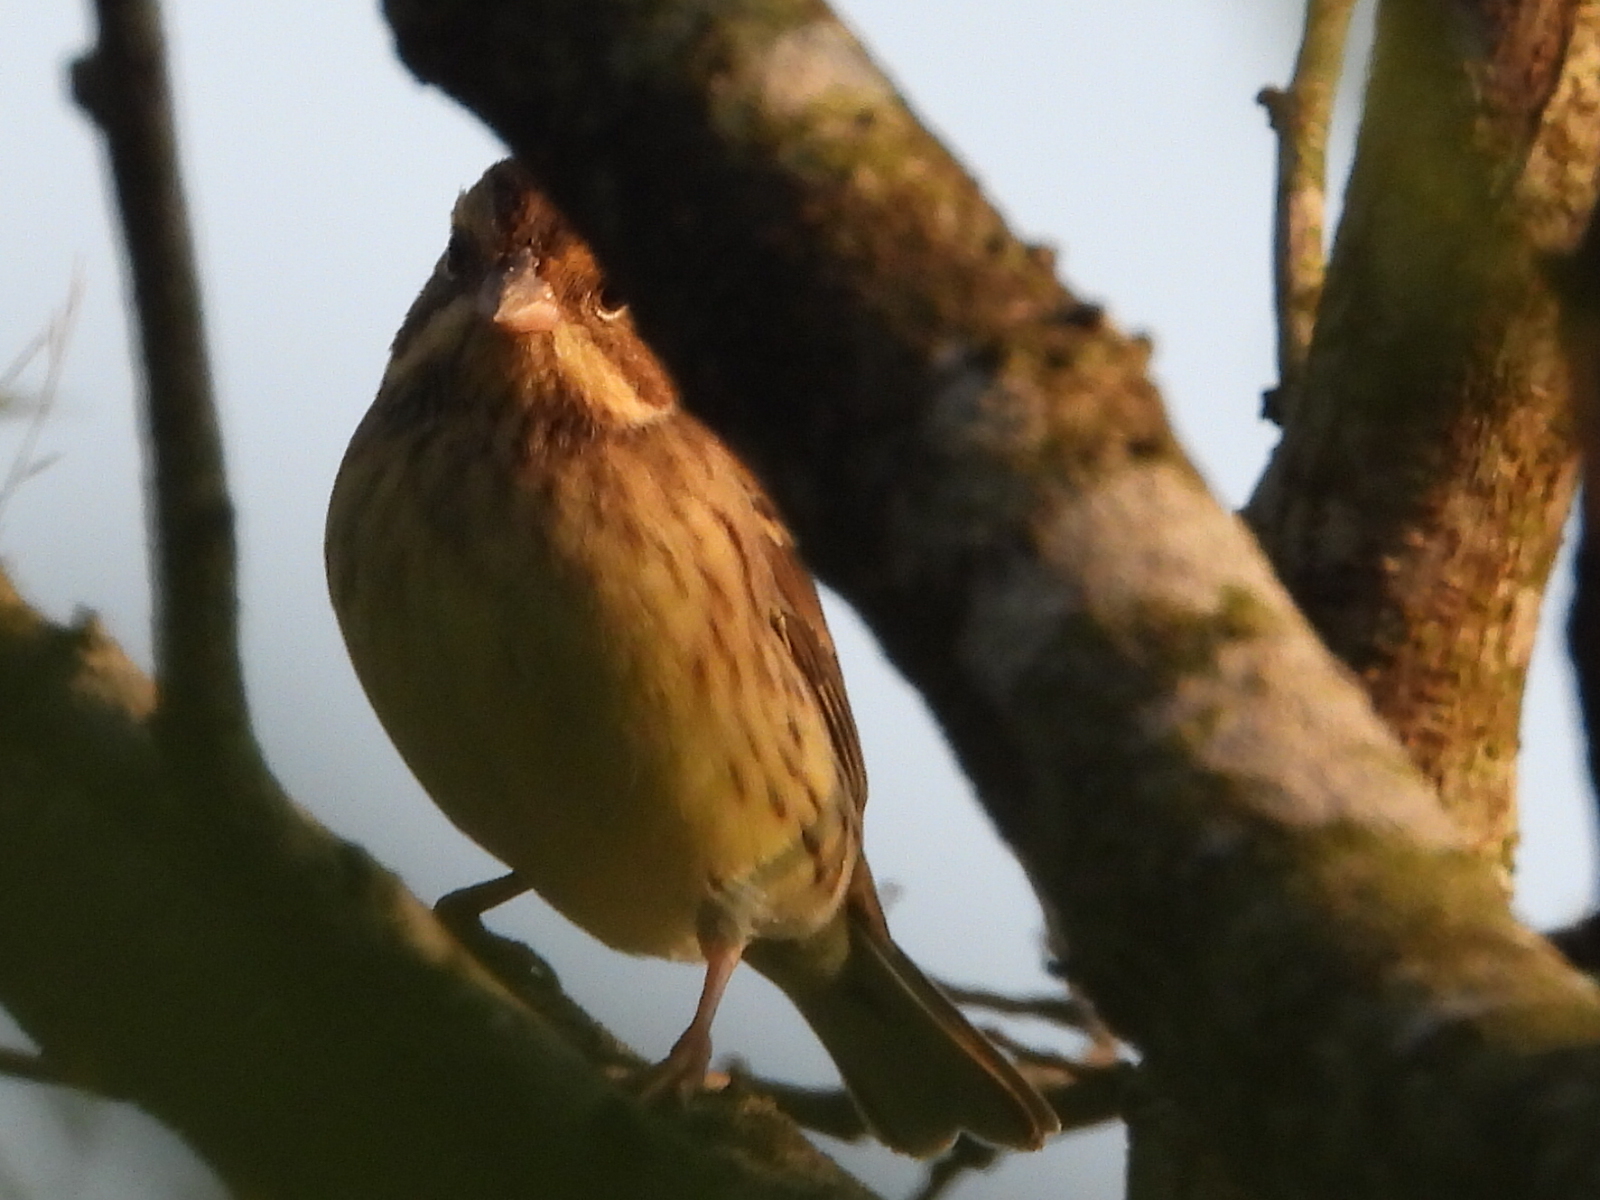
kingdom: Animalia
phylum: Chordata
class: Aves
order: Passeriformes
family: Emberizidae
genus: Emberiza
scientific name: Emberiza rutila
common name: Chestnut bunting
